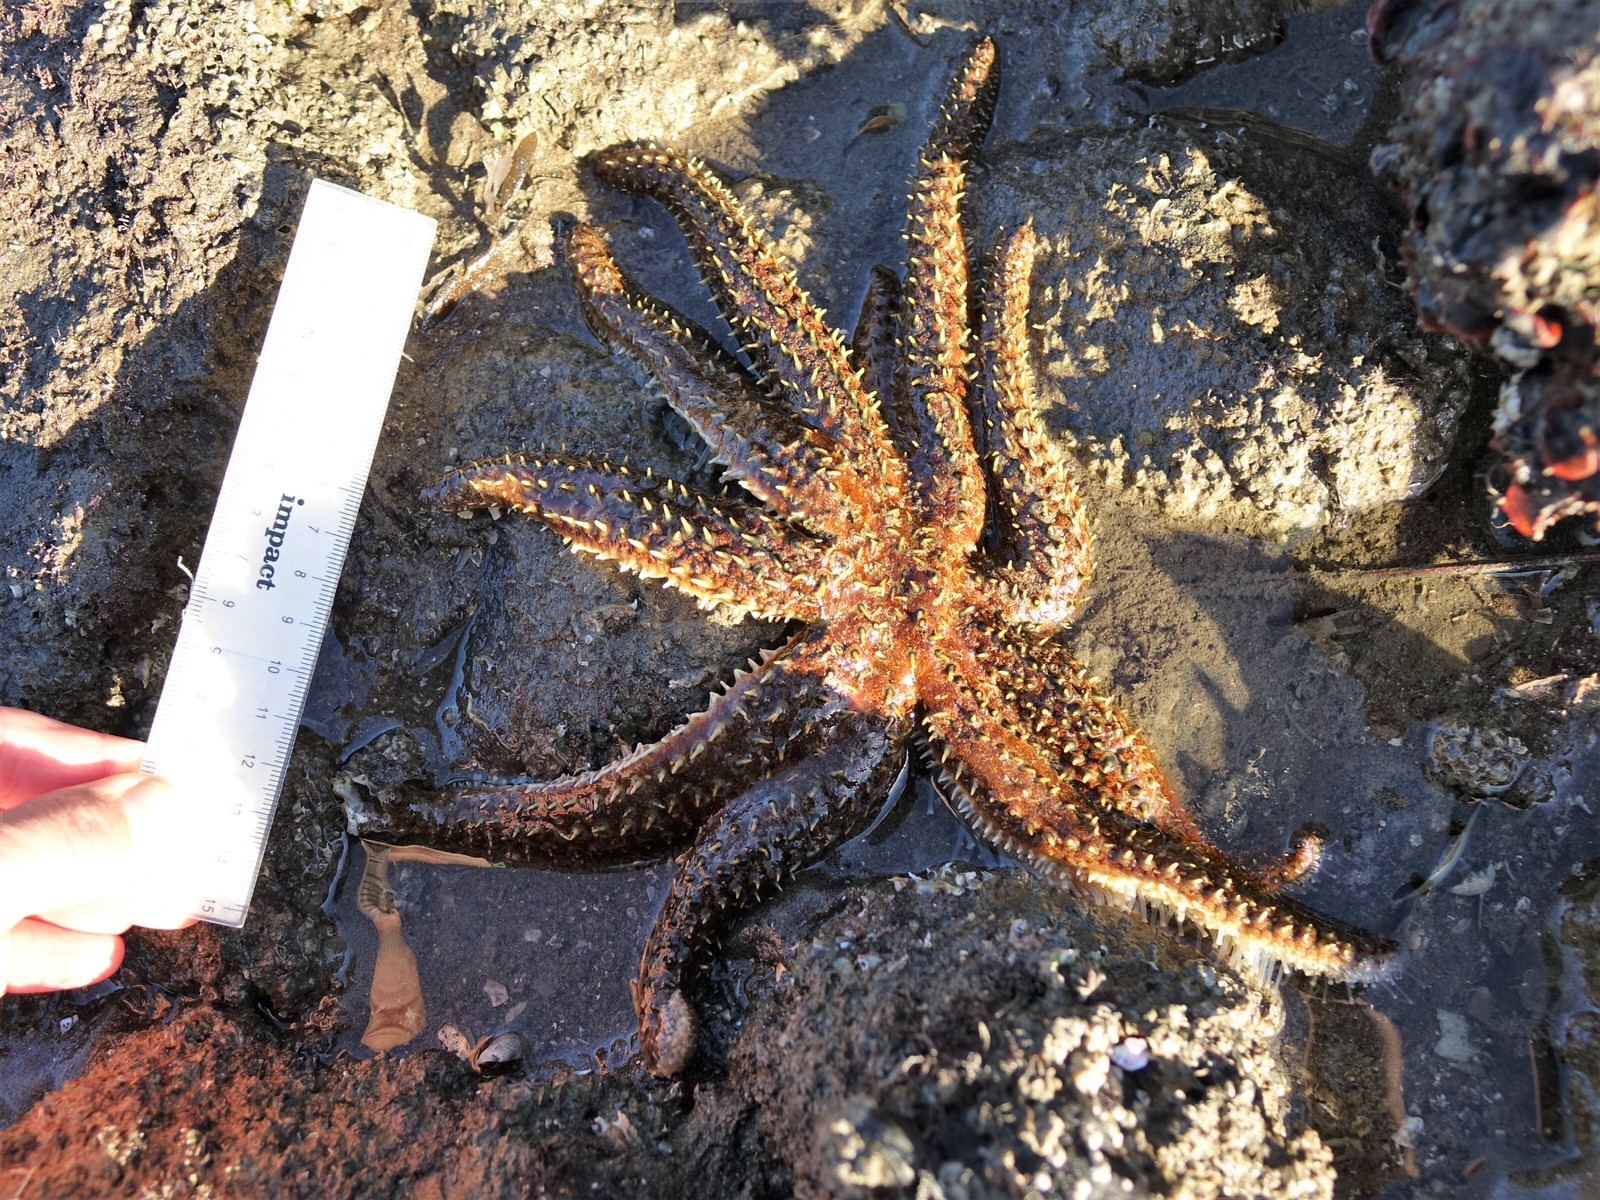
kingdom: Animalia
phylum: Echinodermata
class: Asteroidea
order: Forcipulatida
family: Asteriidae
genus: Coscinasterias
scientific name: Coscinasterias muricata
